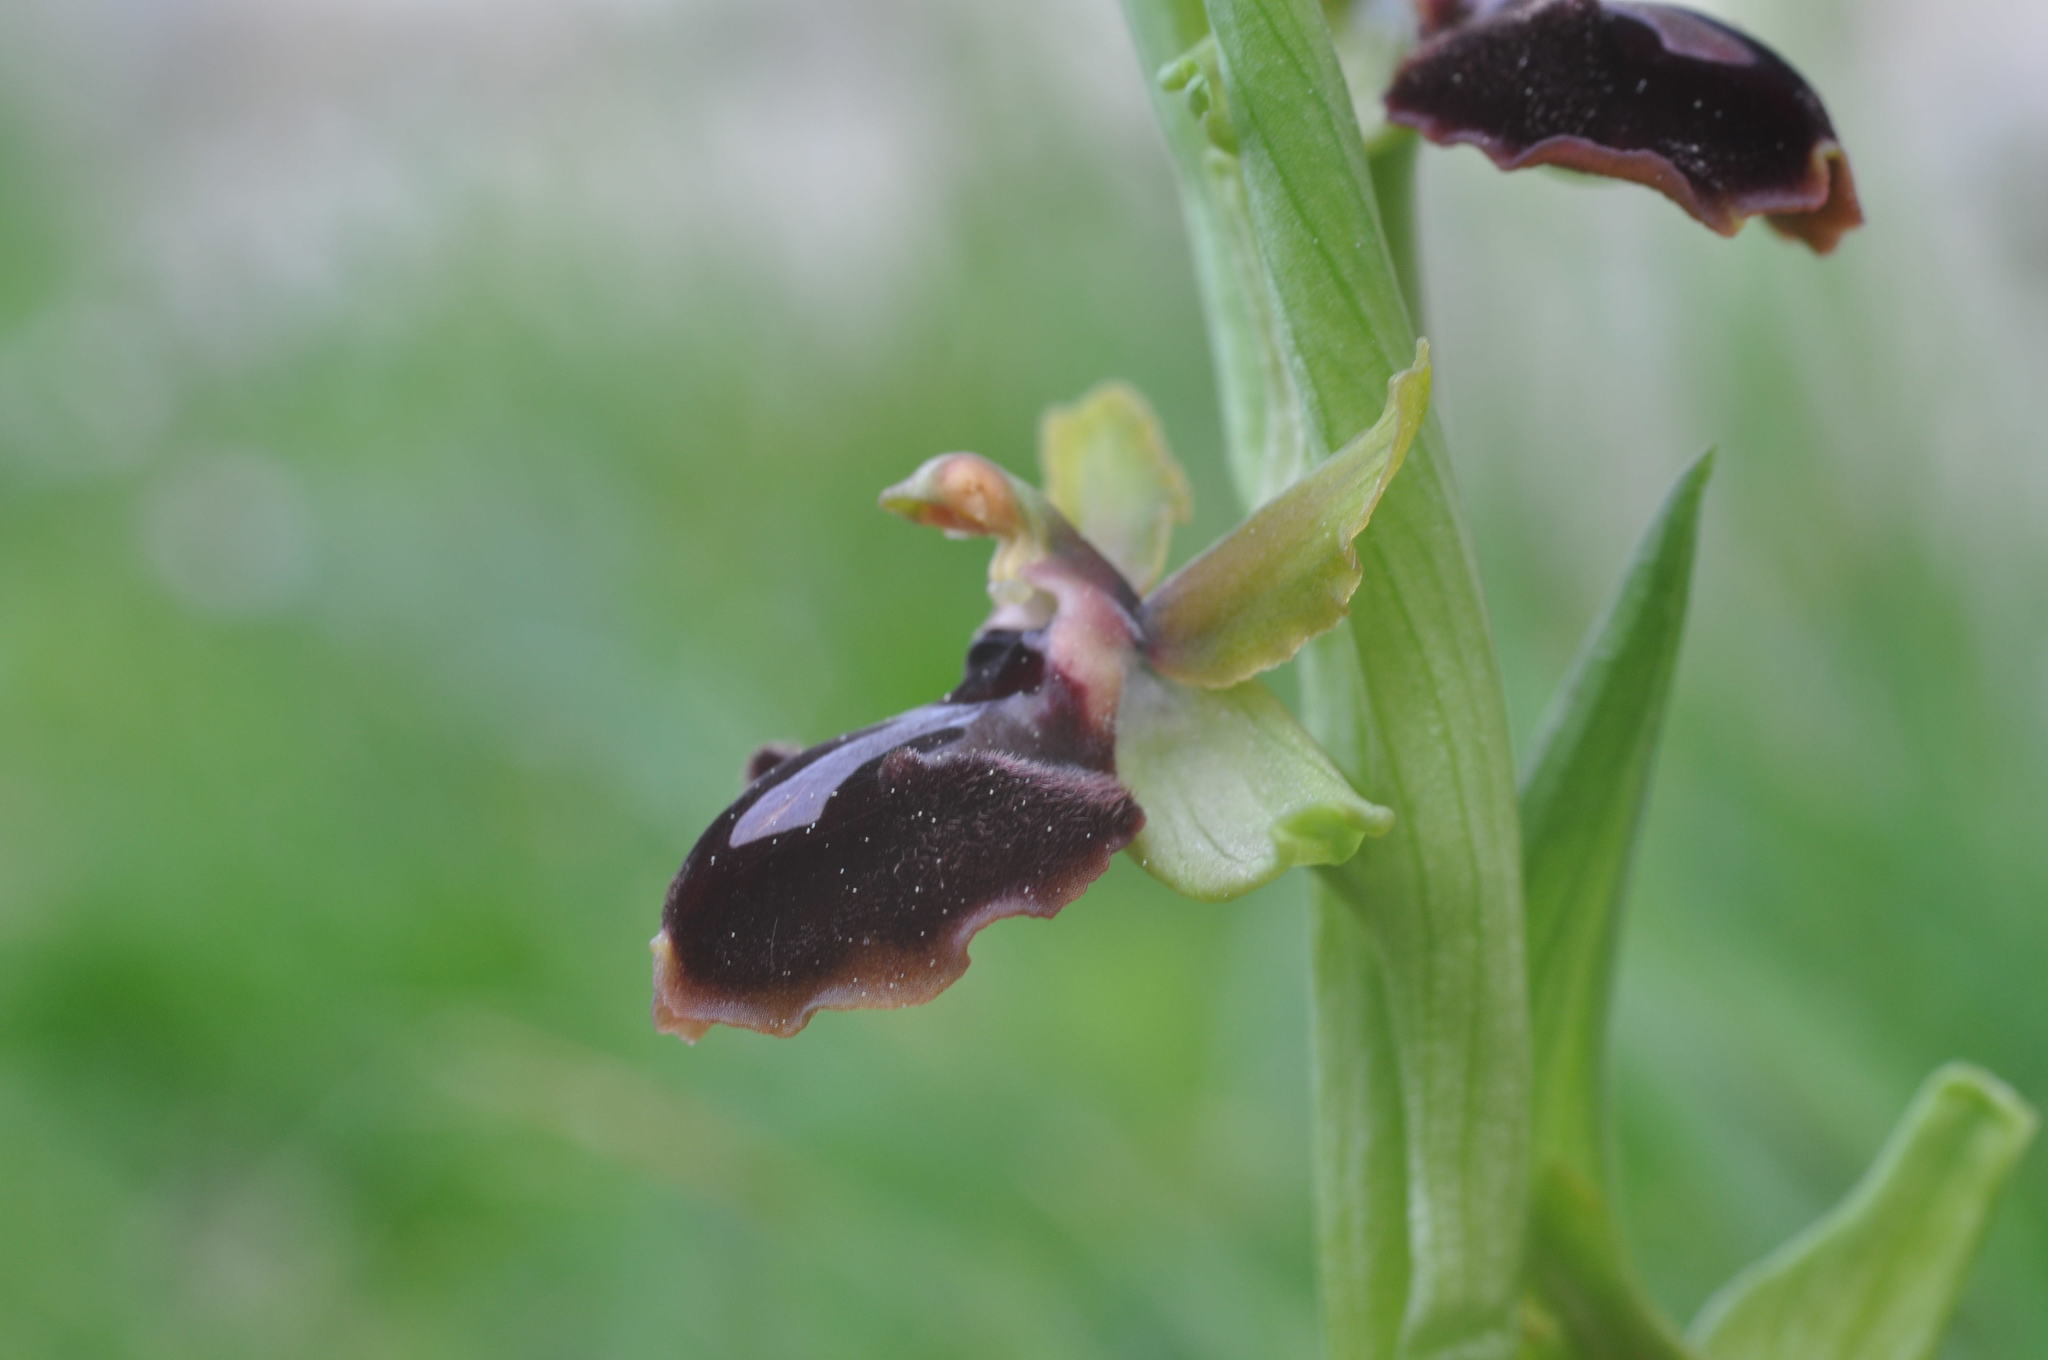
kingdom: Plantae
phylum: Tracheophyta
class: Liliopsida
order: Asparagales
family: Orchidaceae
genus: Ophrys
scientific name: Ophrys sphegodes
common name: Early spider-orchid
